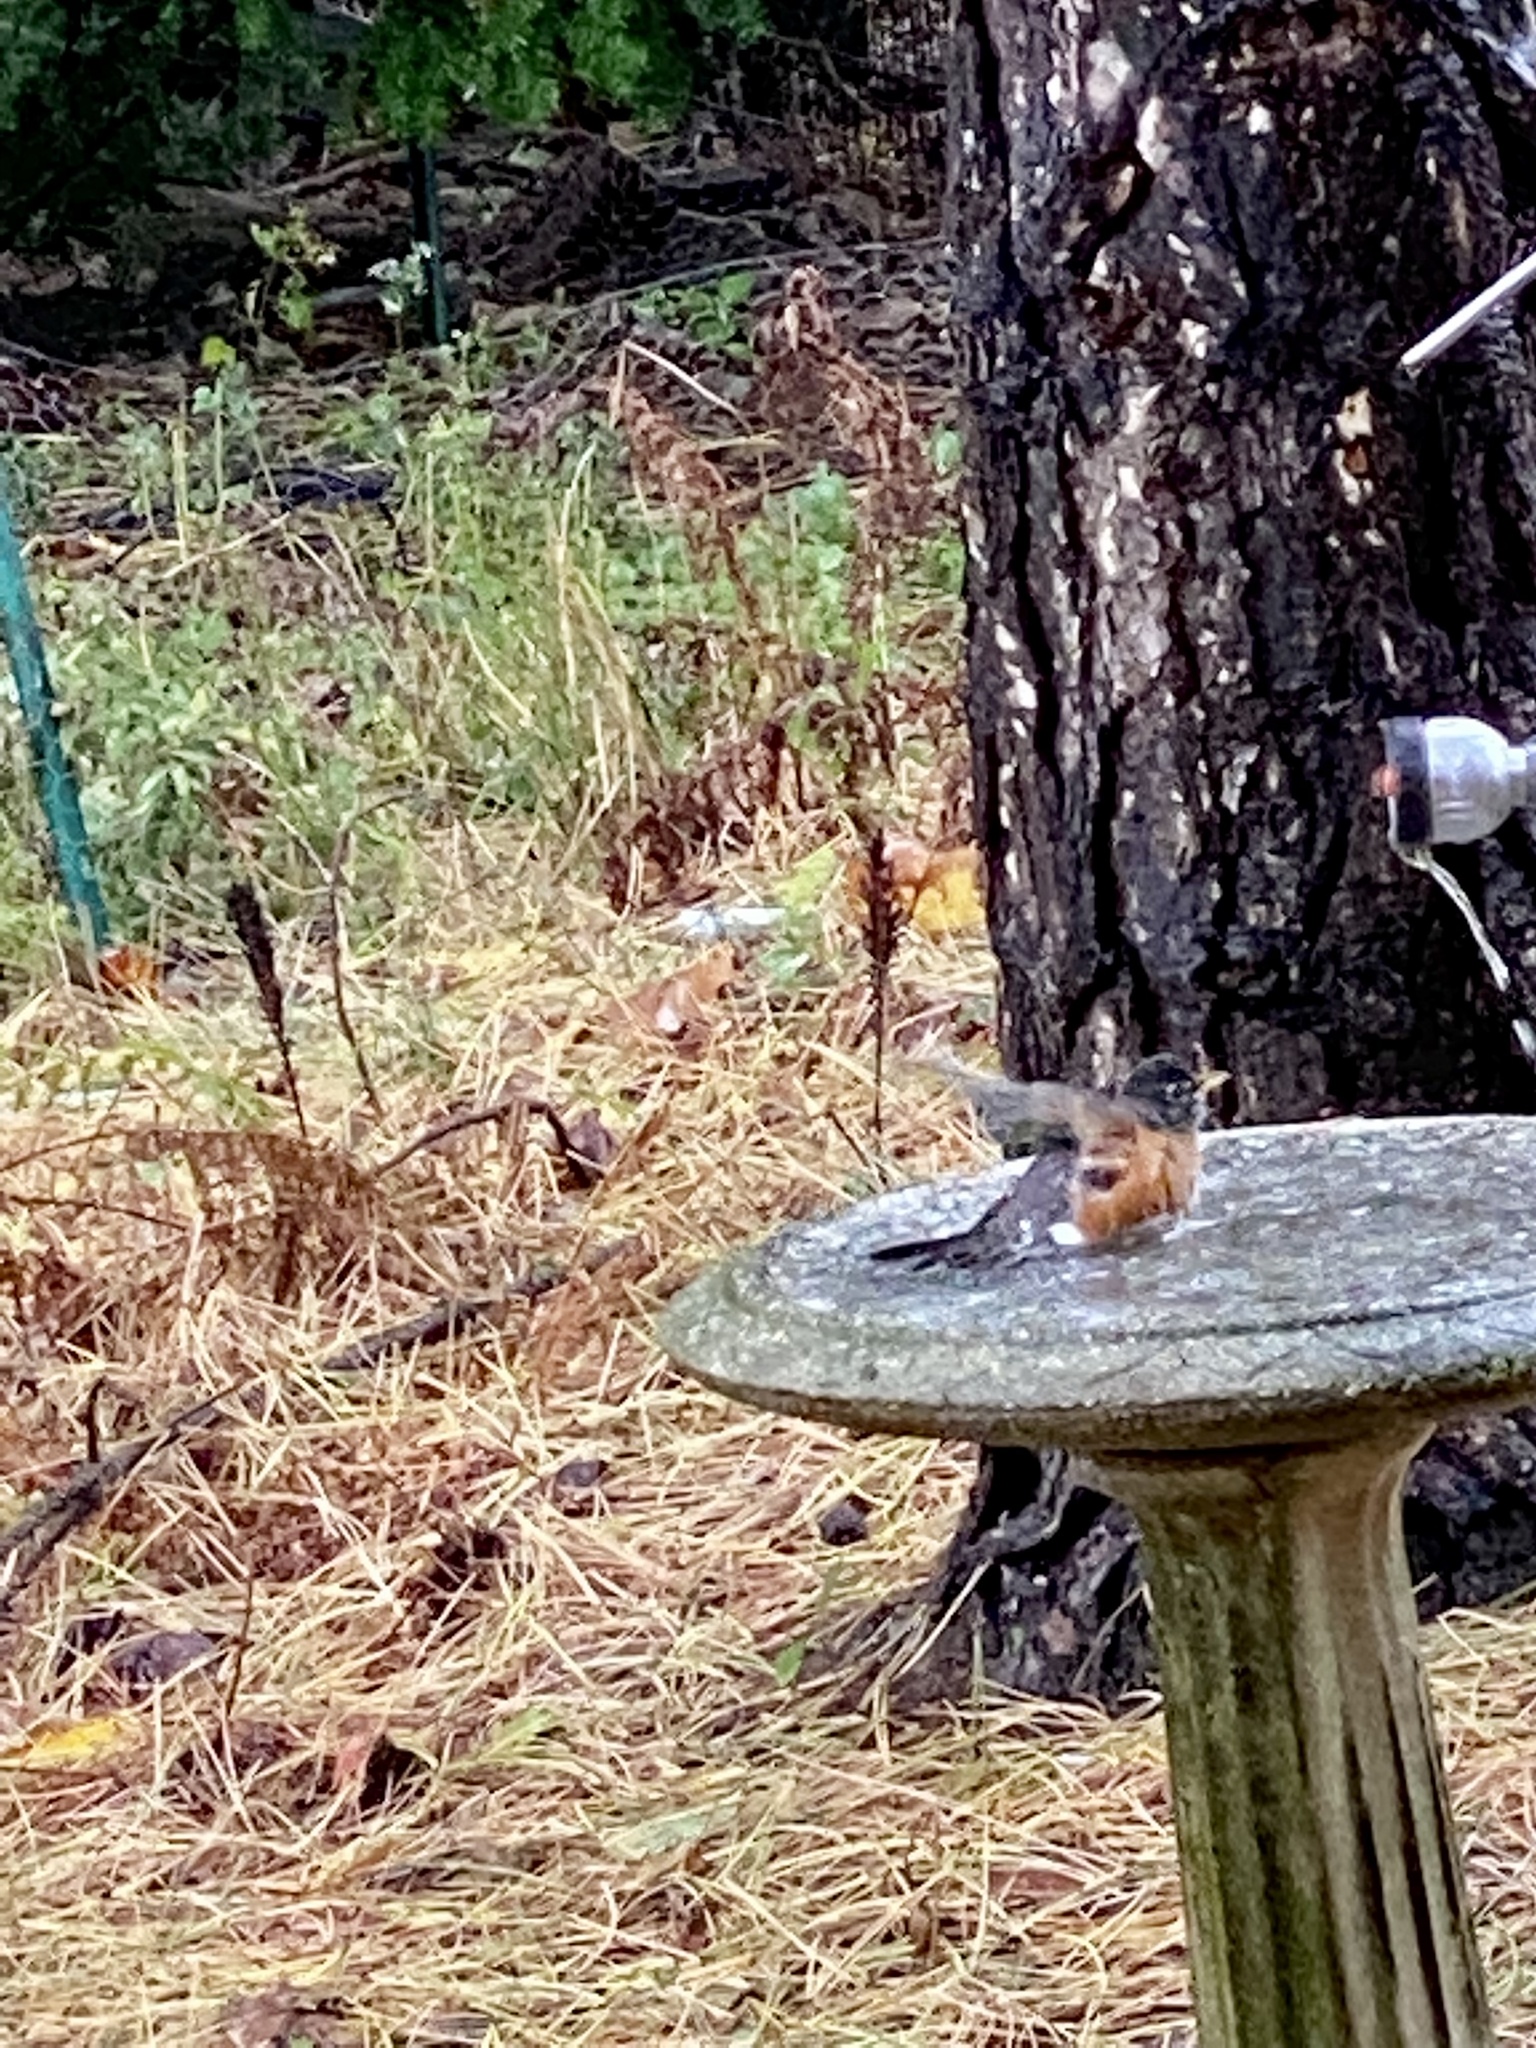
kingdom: Animalia
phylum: Chordata
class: Aves
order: Passeriformes
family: Turdidae
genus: Turdus
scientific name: Turdus migratorius
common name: American robin
